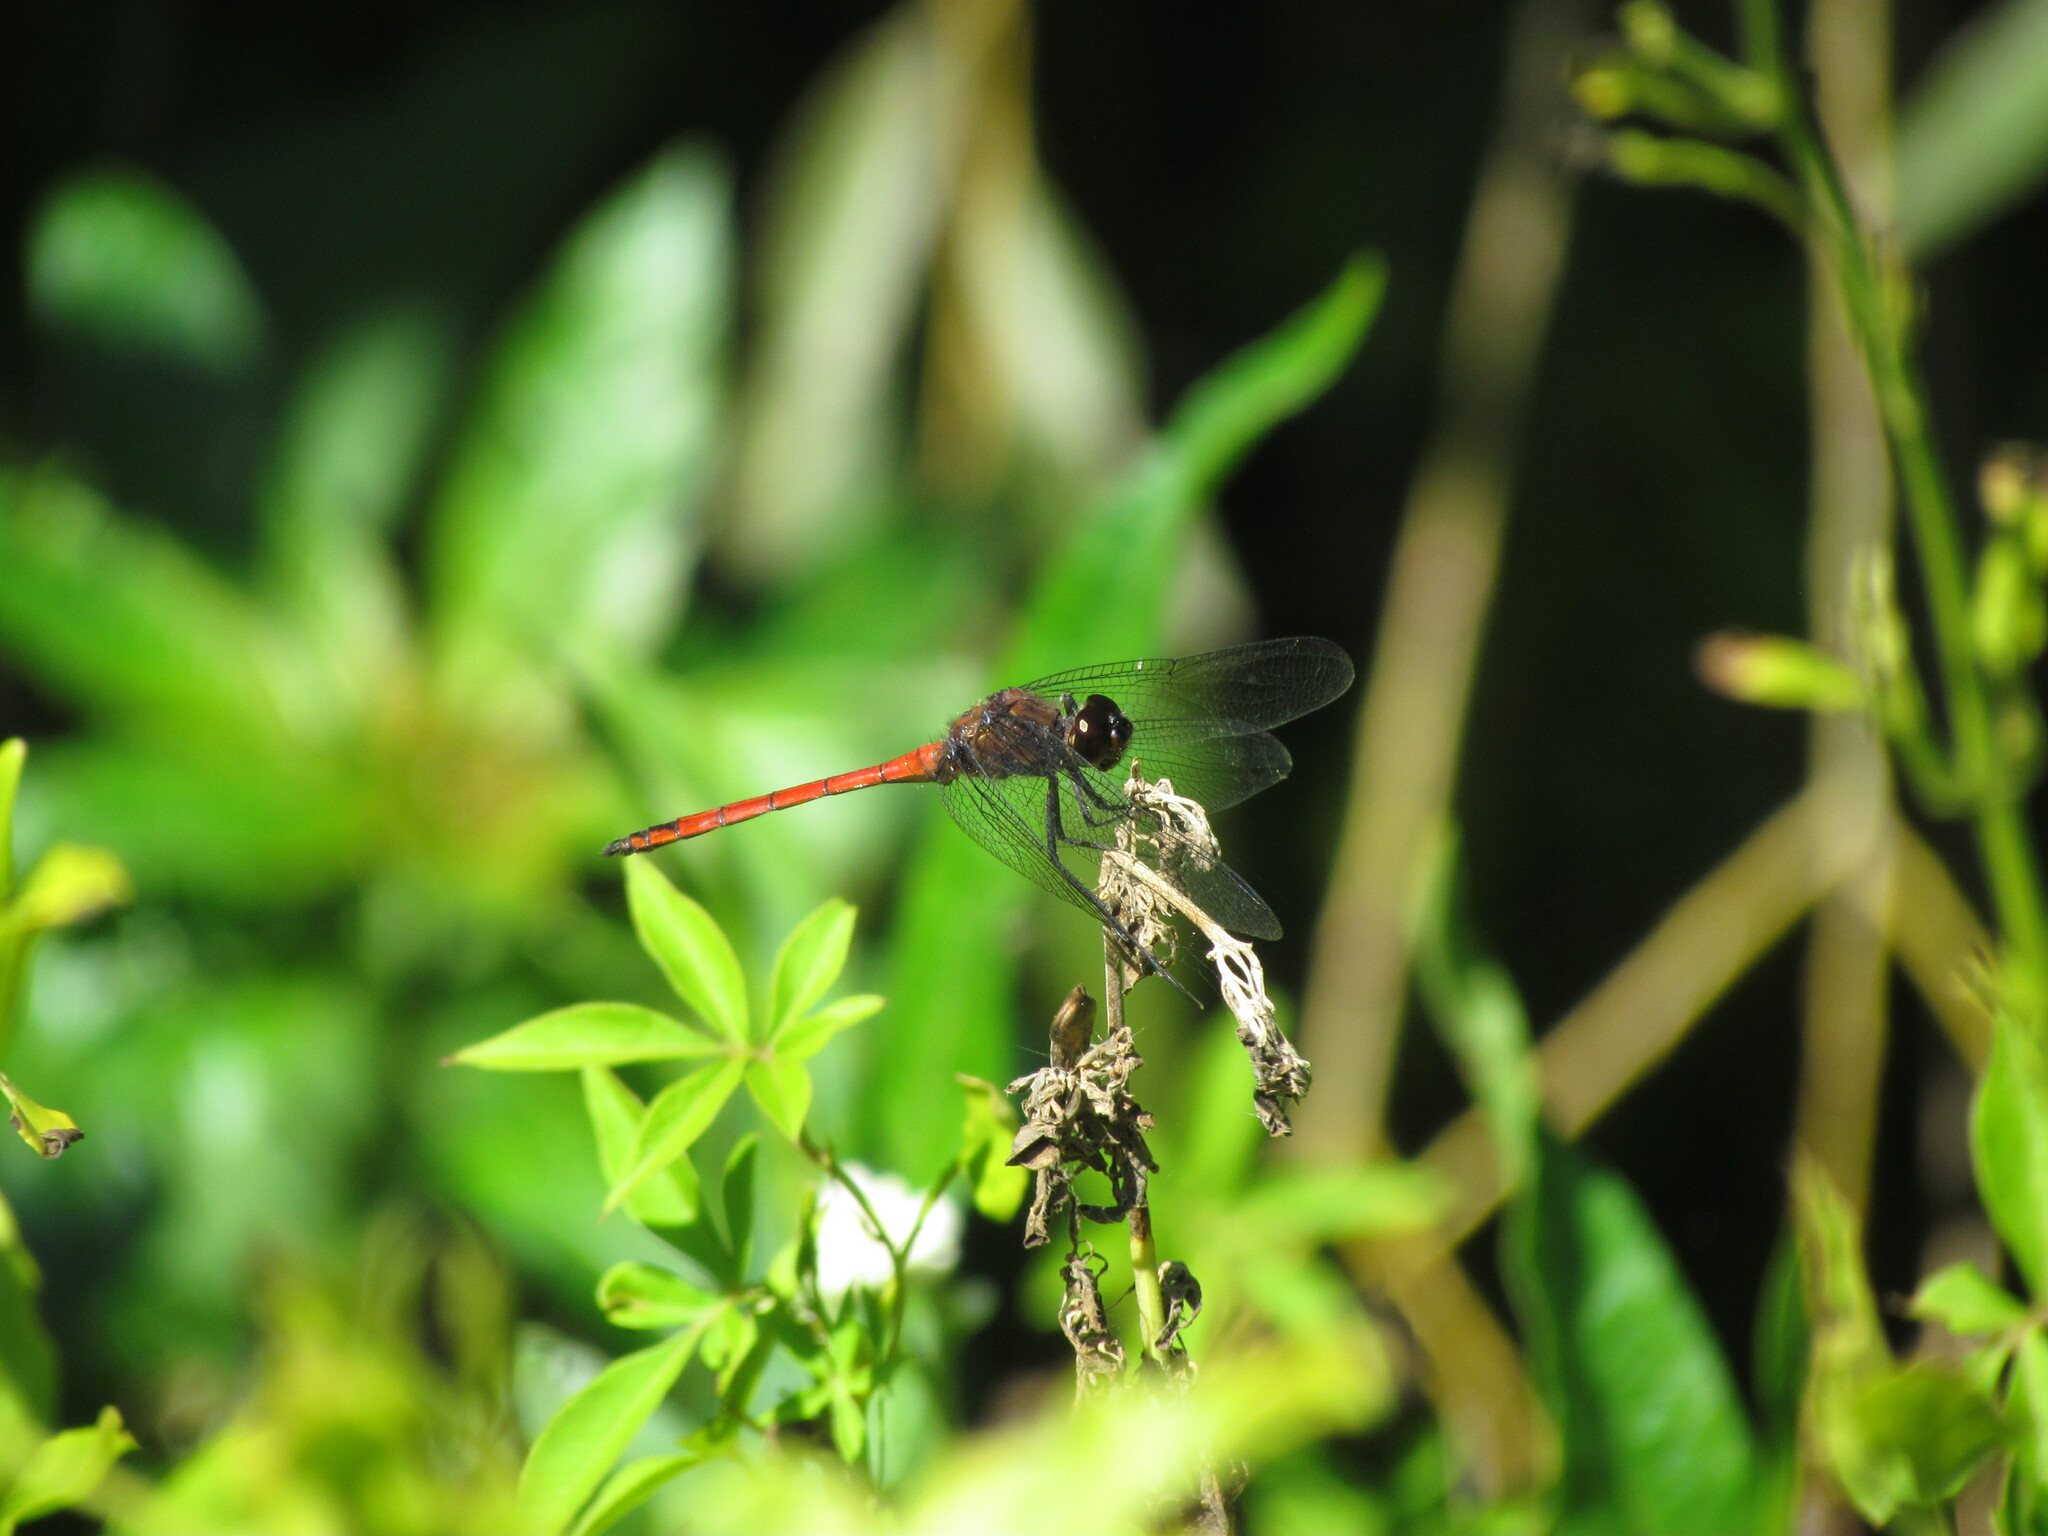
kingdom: Animalia
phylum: Arthropoda
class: Insecta
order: Odonata
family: Libellulidae
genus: Orthemis
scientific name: Orthemis ambinigra
